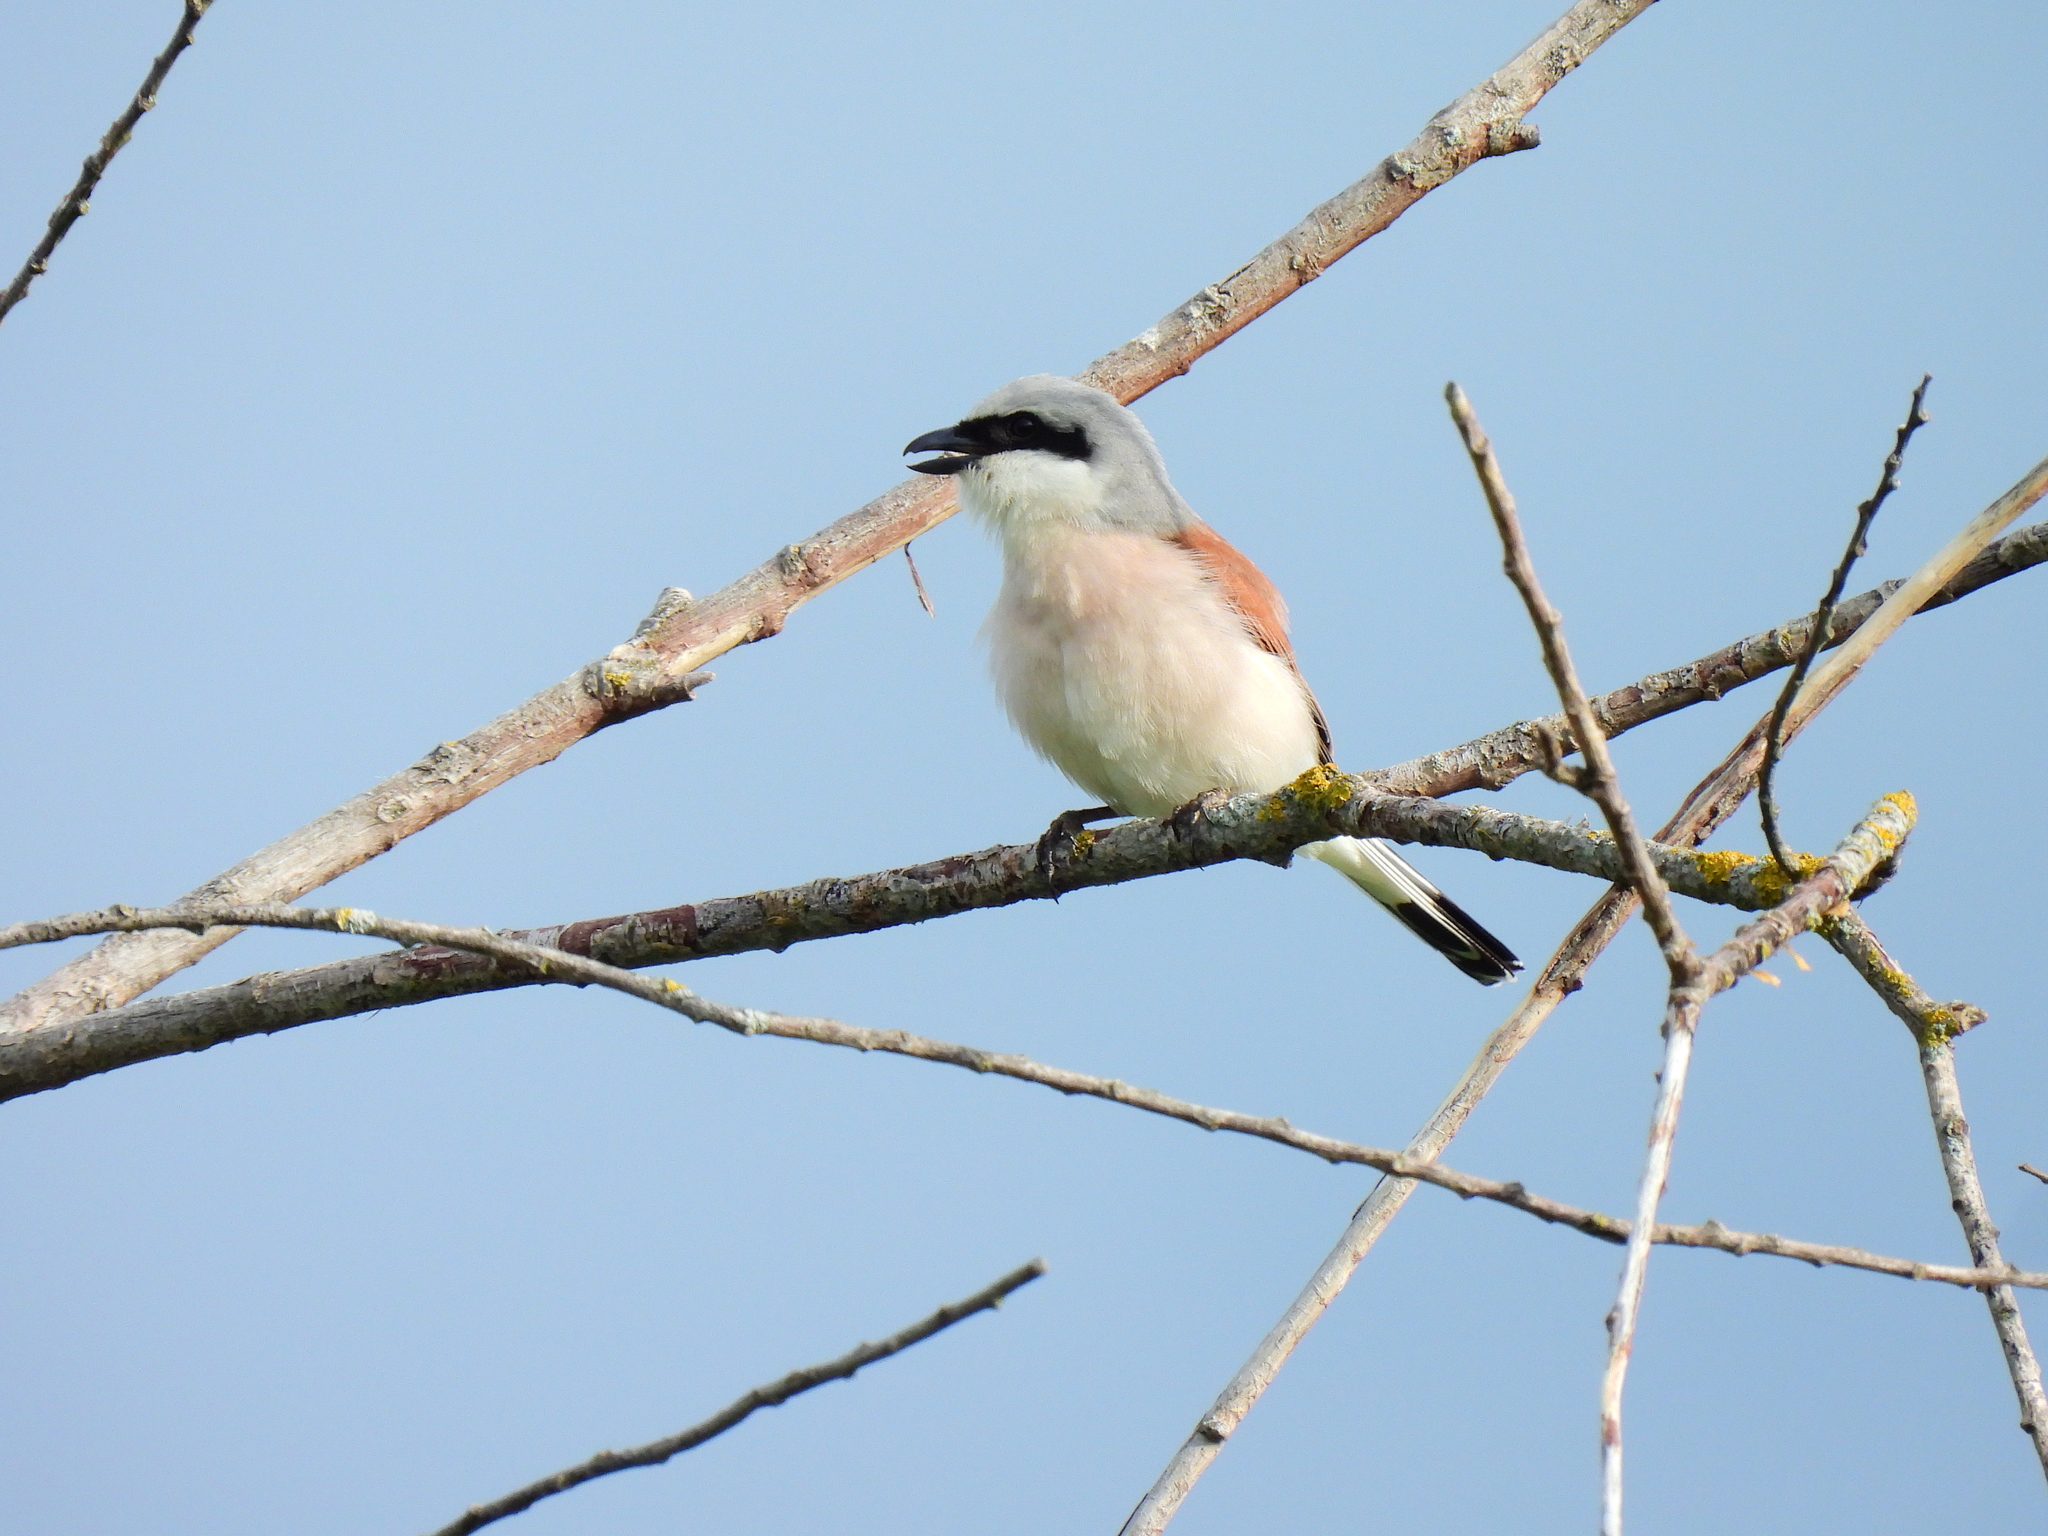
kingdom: Animalia
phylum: Chordata
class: Aves
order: Passeriformes
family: Laniidae
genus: Lanius
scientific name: Lanius collurio
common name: Red-backed shrike
